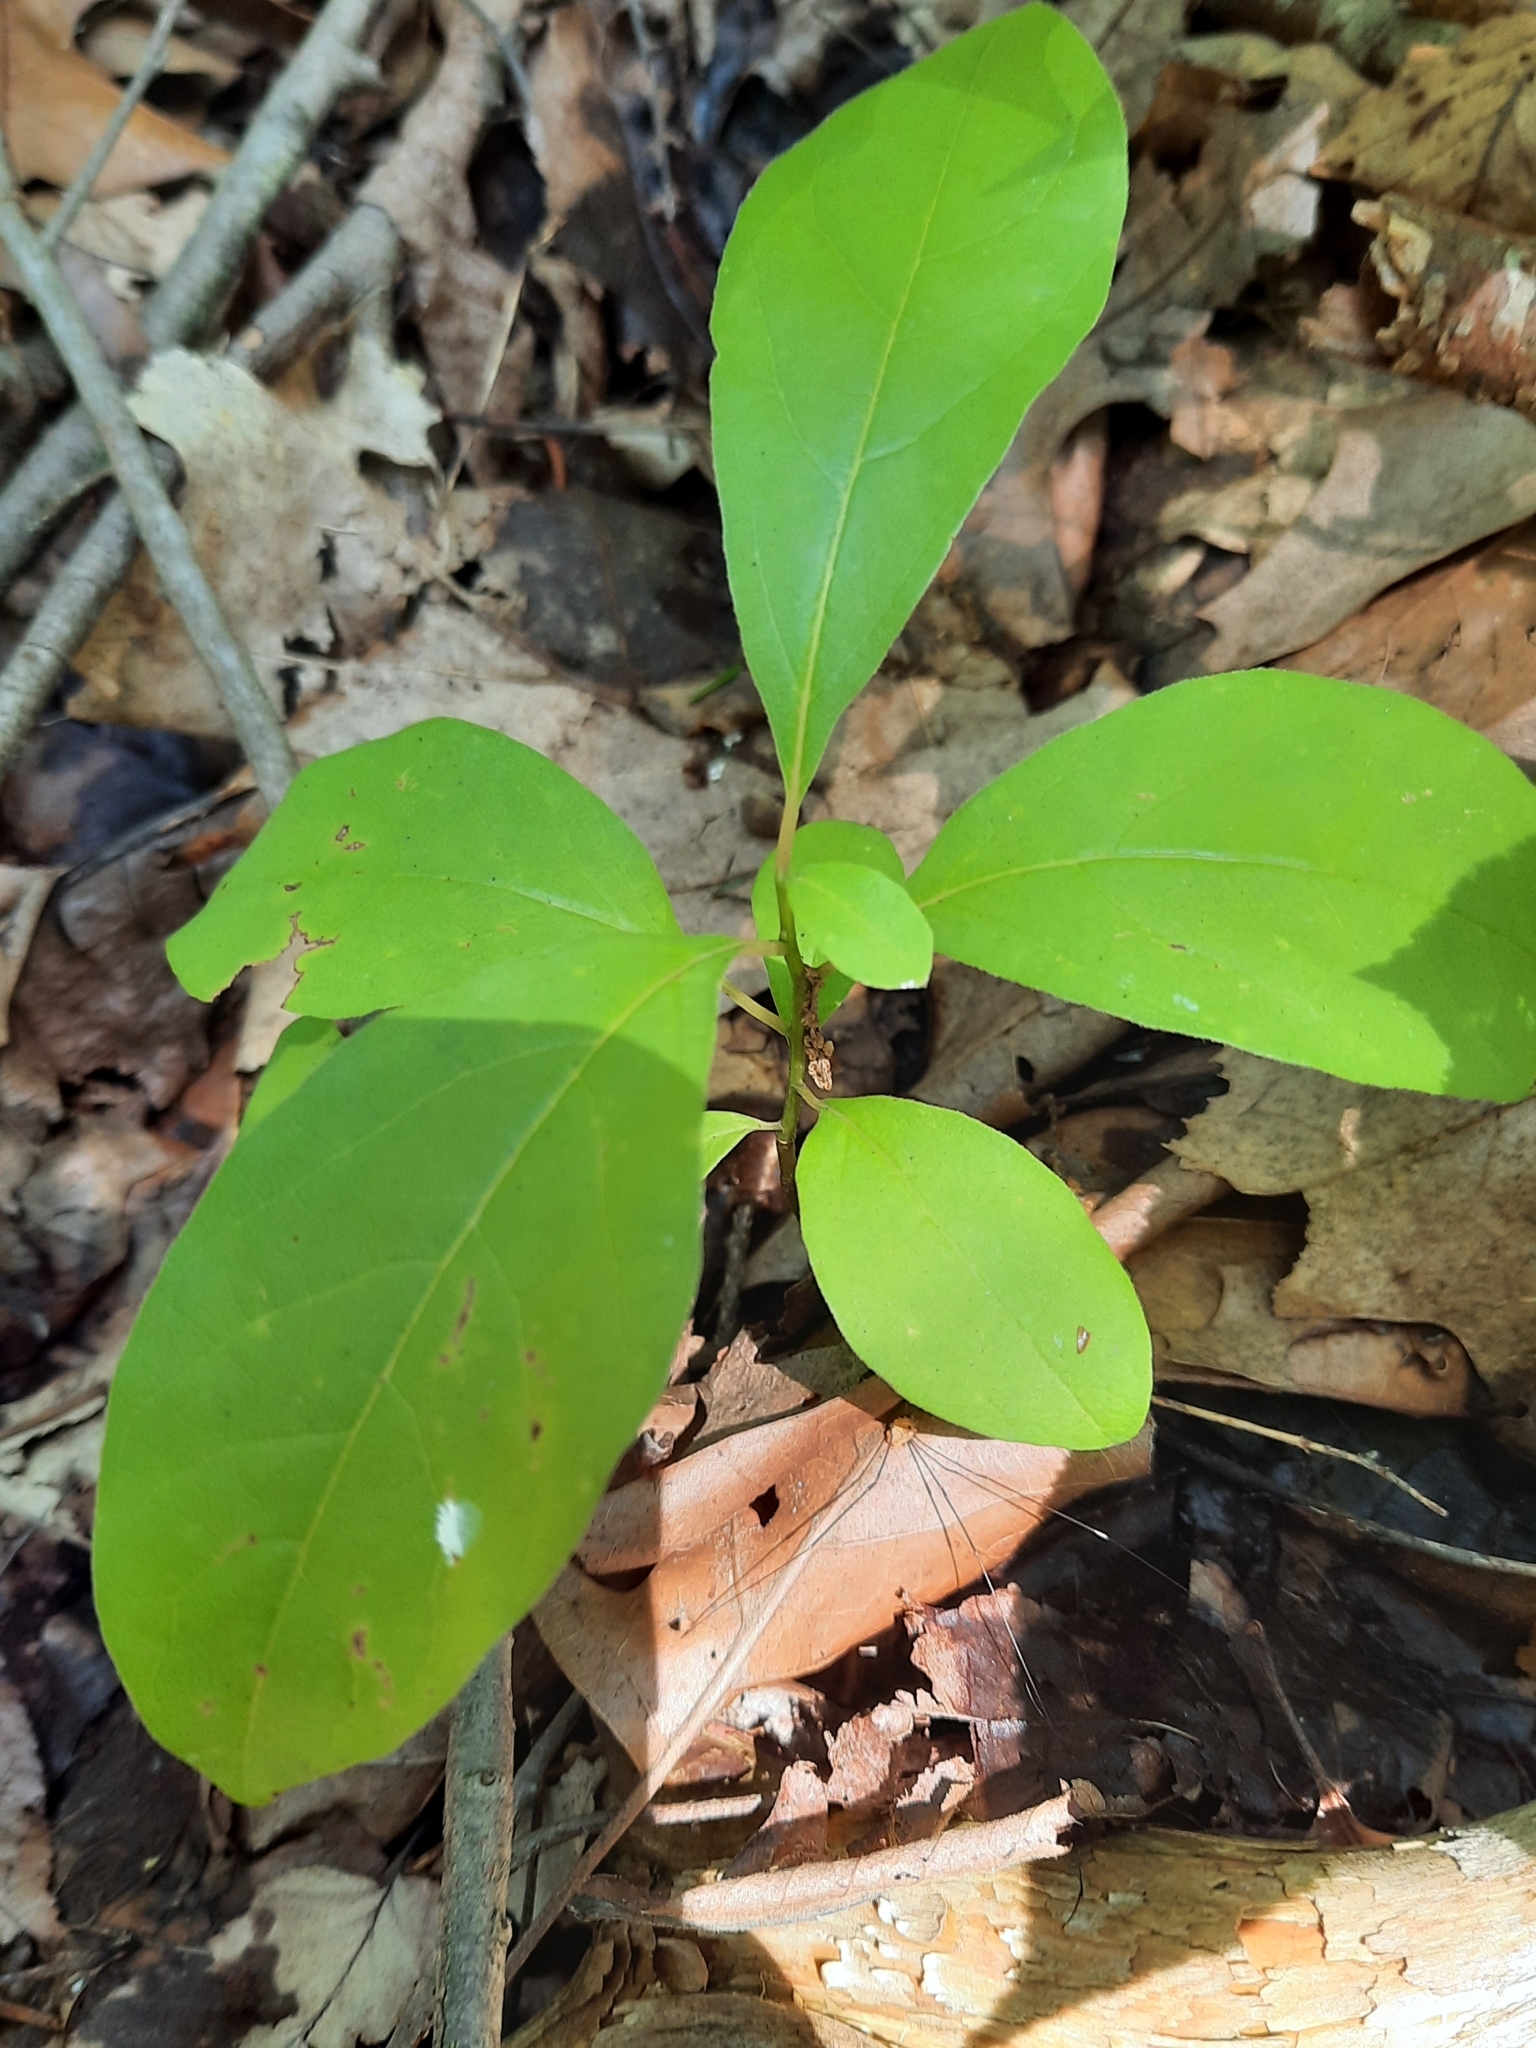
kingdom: Plantae
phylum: Tracheophyta
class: Magnoliopsida
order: Laurales
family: Lauraceae
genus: Lindera
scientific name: Lindera benzoin
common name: Spicebush
